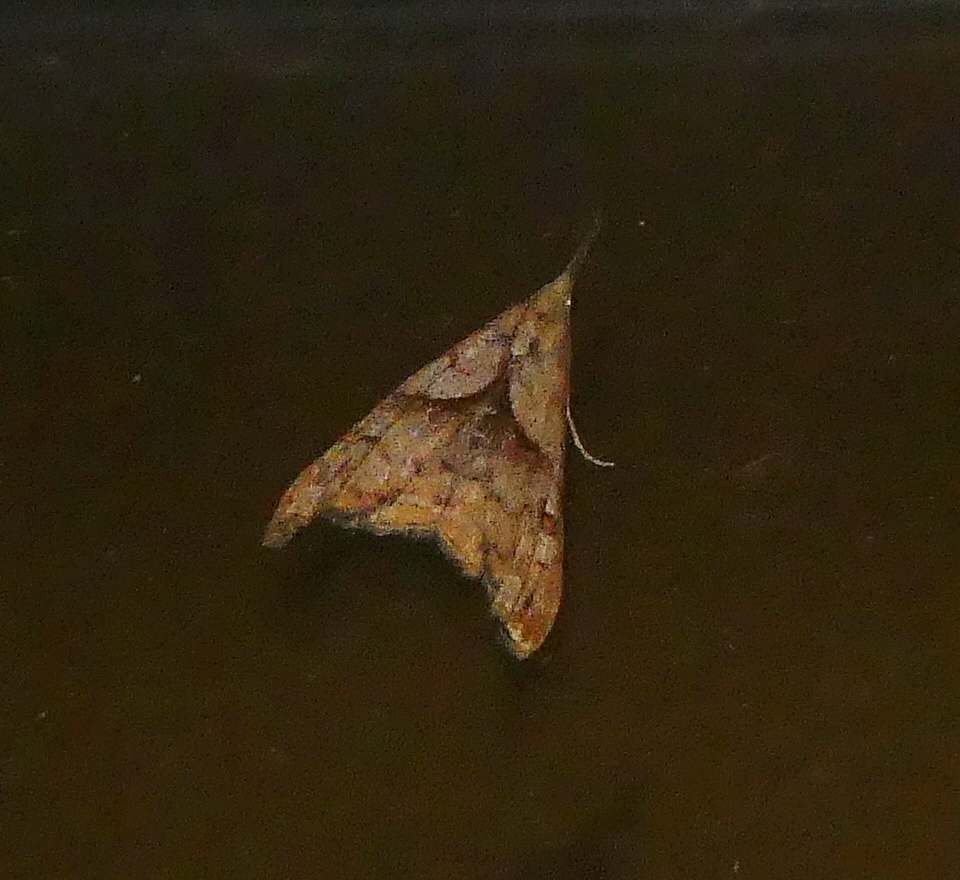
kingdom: Animalia
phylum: Arthropoda
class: Insecta
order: Lepidoptera
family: Erebidae
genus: Palthis
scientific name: Palthis angulalis
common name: Dark-spotted palthis moth
